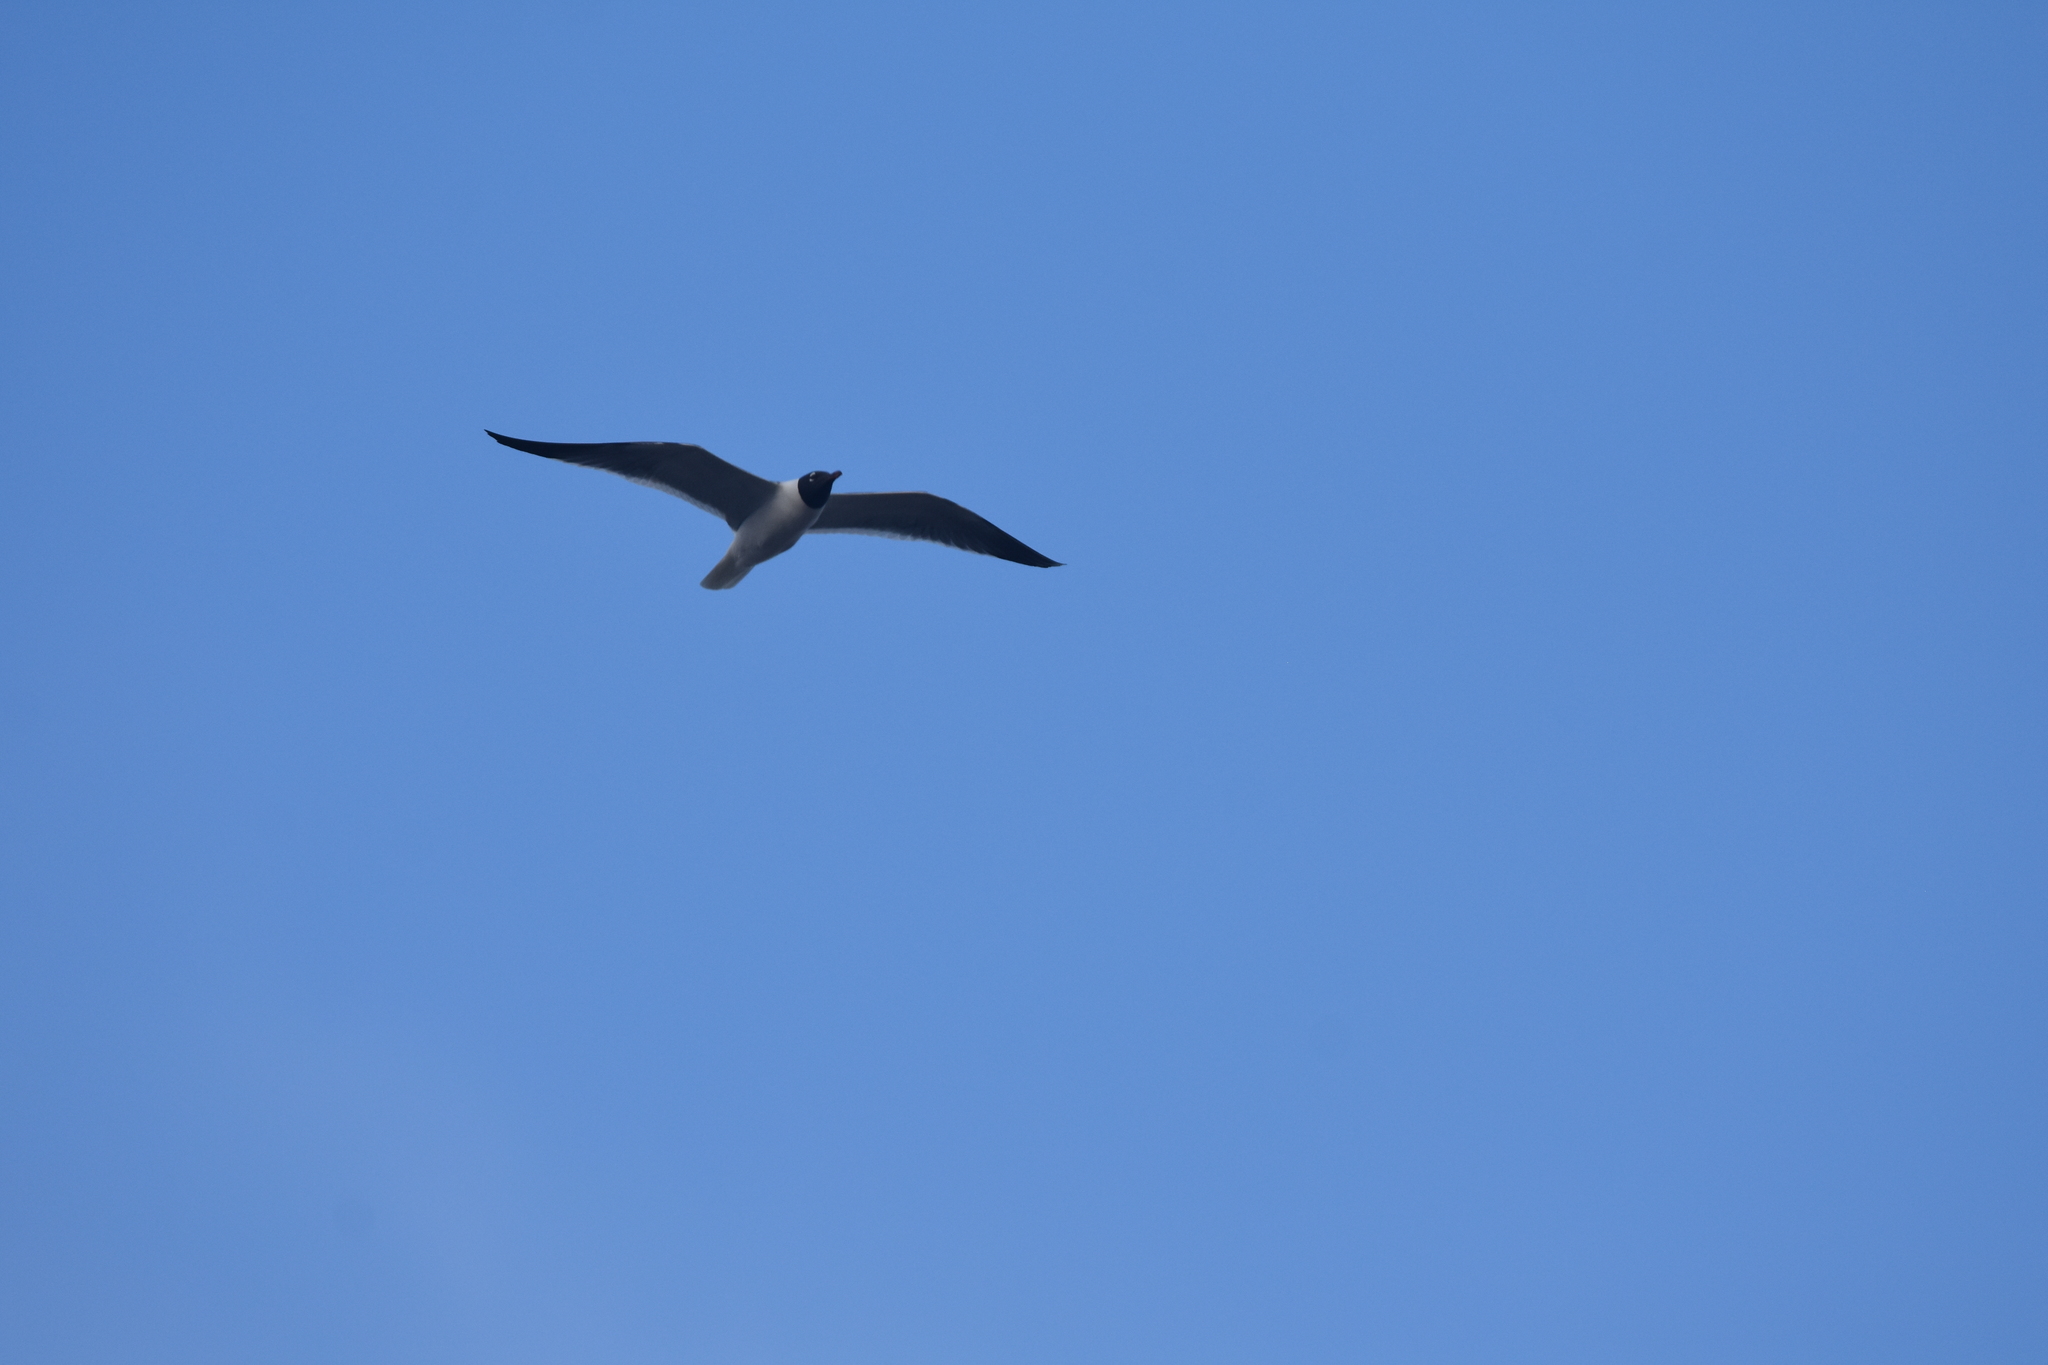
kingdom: Animalia
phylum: Chordata
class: Aves
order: Charadriiformes
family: Laridae
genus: Leucophaeus
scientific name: Leucophaeus atricilla
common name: Laughing gull
